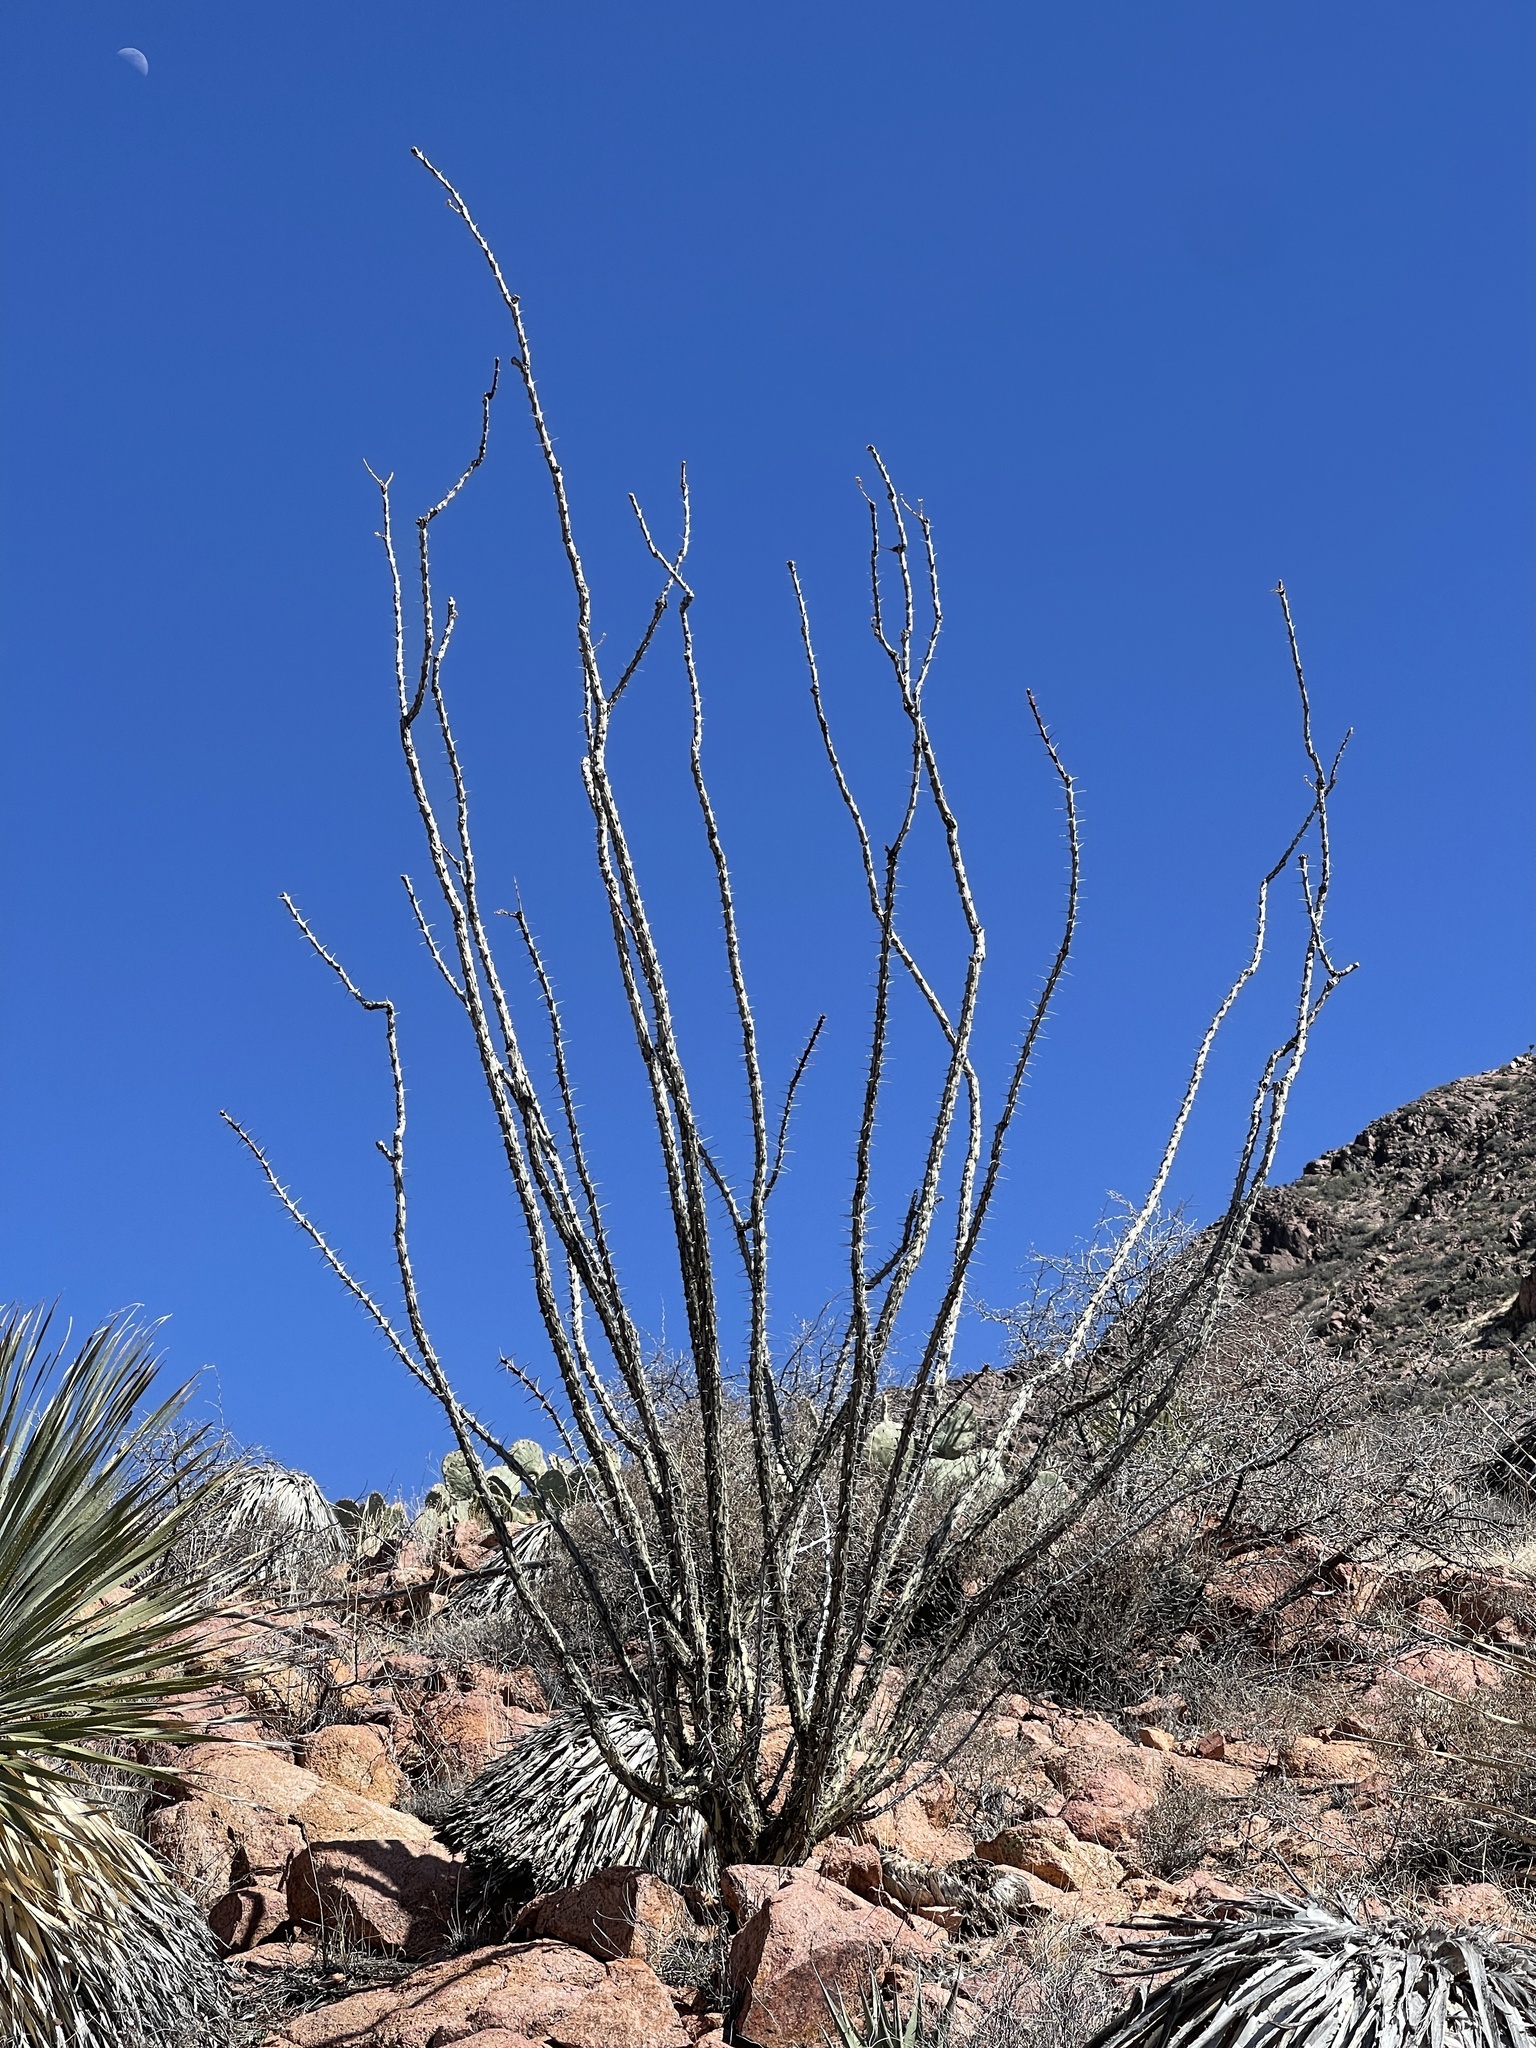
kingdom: Plantae
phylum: Tracheophyta
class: Magnoliopsida
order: Ericales
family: Fouquieriaceae
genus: Fouquieria
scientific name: Fouquieria splendens
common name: Vine-cactus
